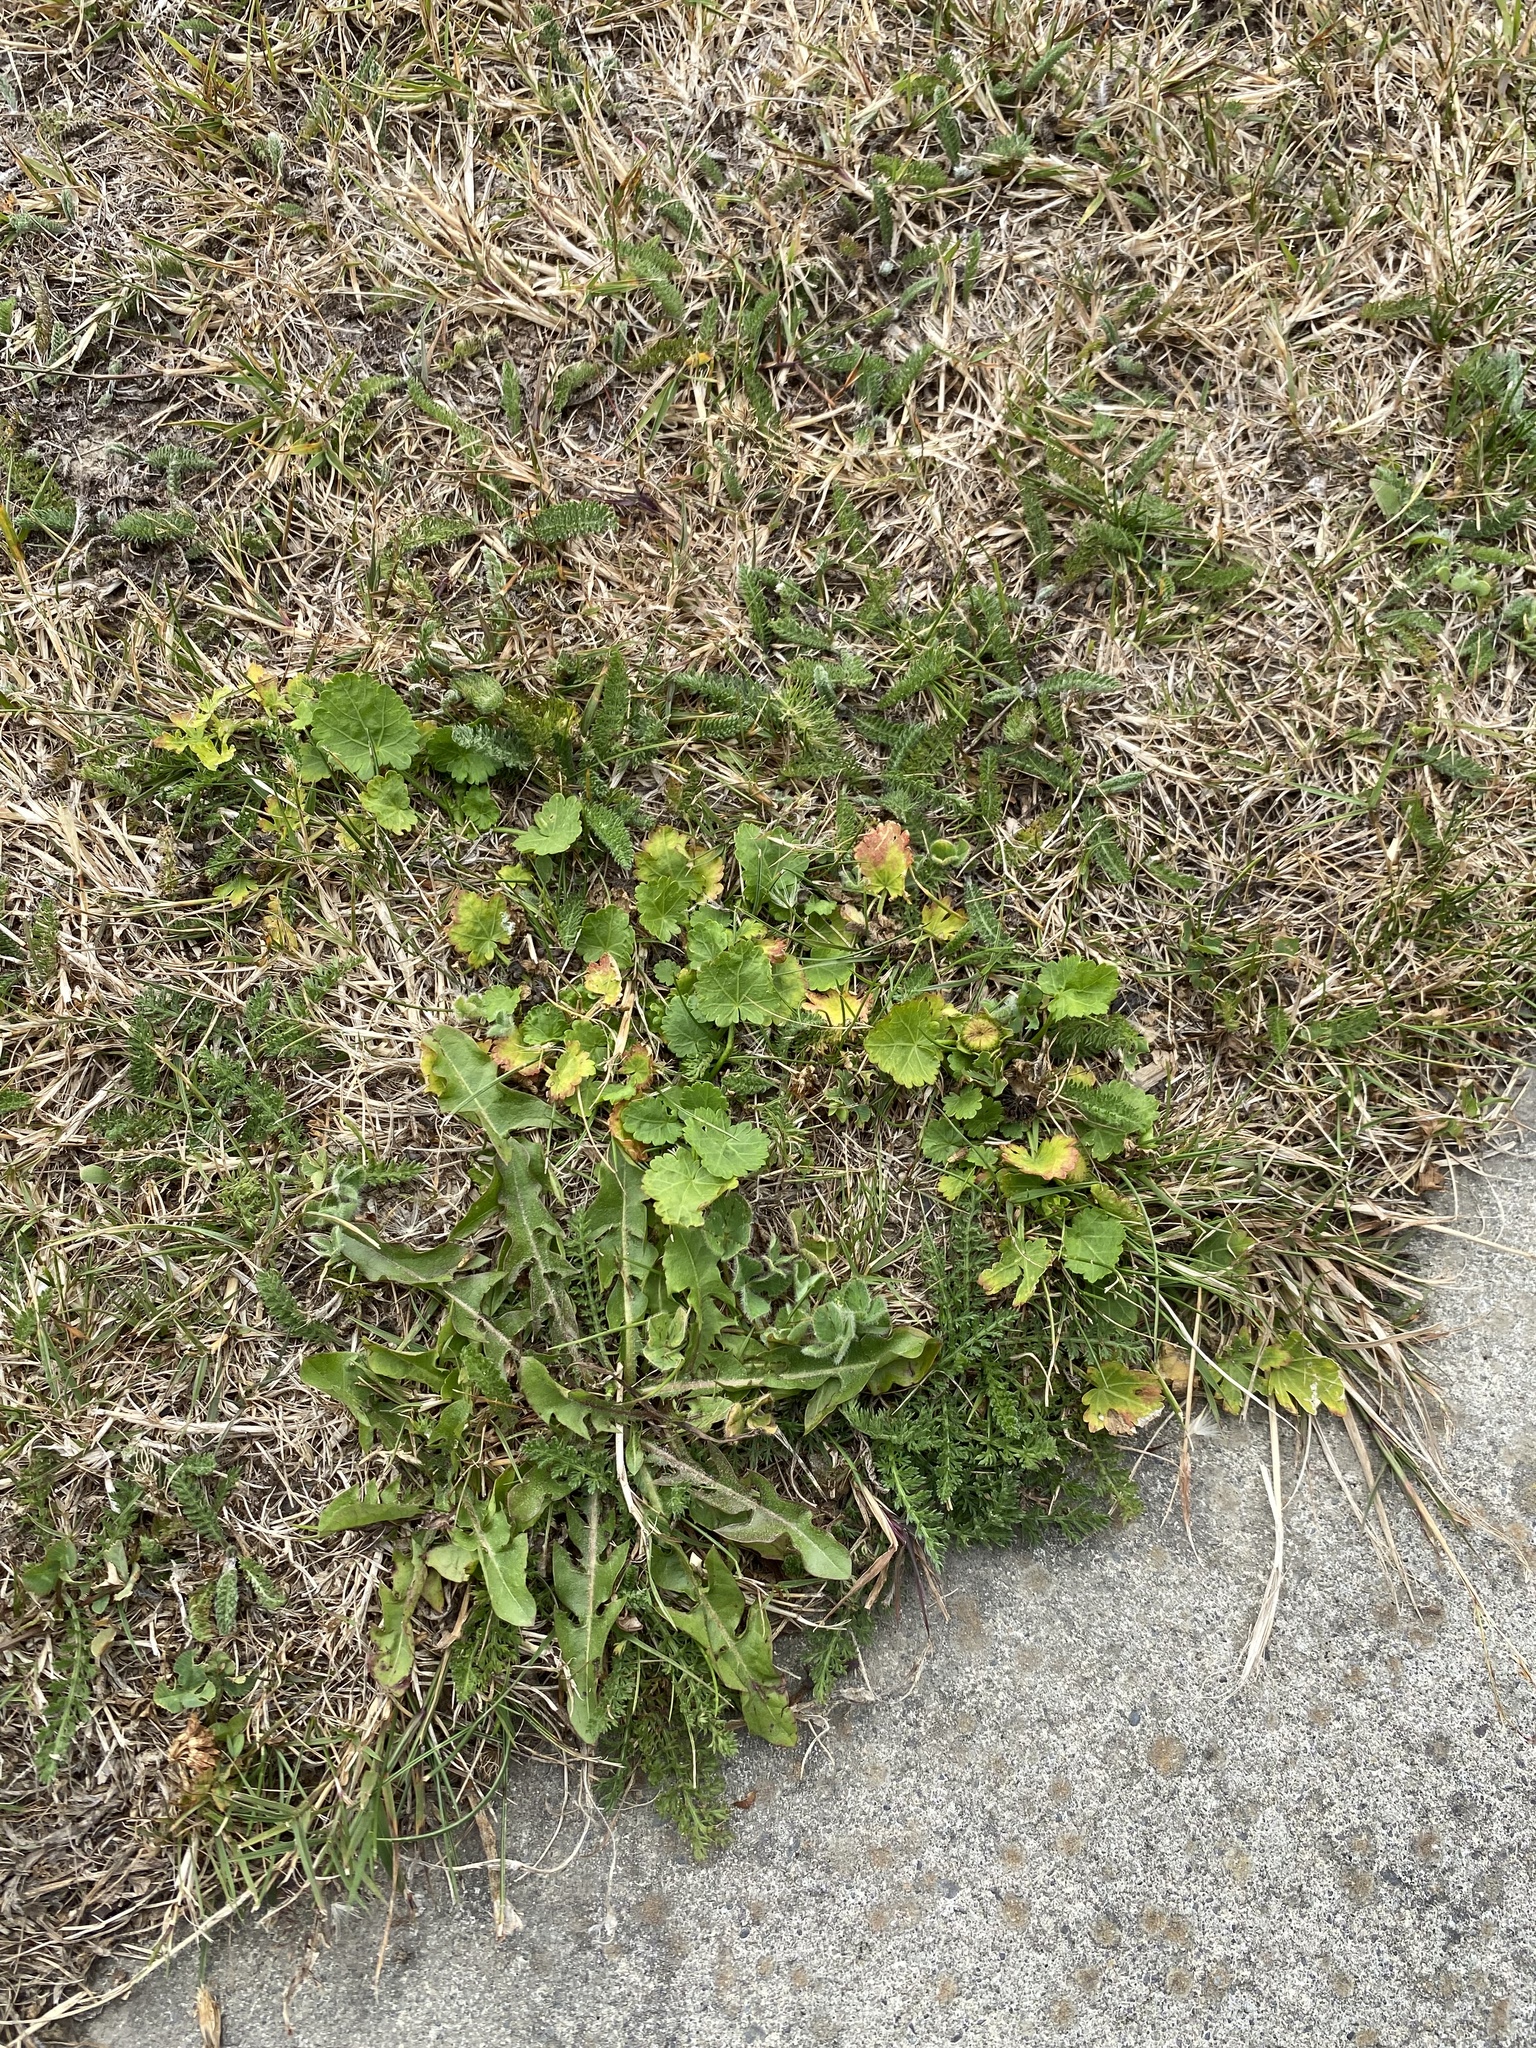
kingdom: Plantae
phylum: Tracheophyta
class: Magnoliopsida
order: Malvales
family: Malvaceae
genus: Modiola
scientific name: Modiola caroliniana
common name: Carolina bristlemallow
